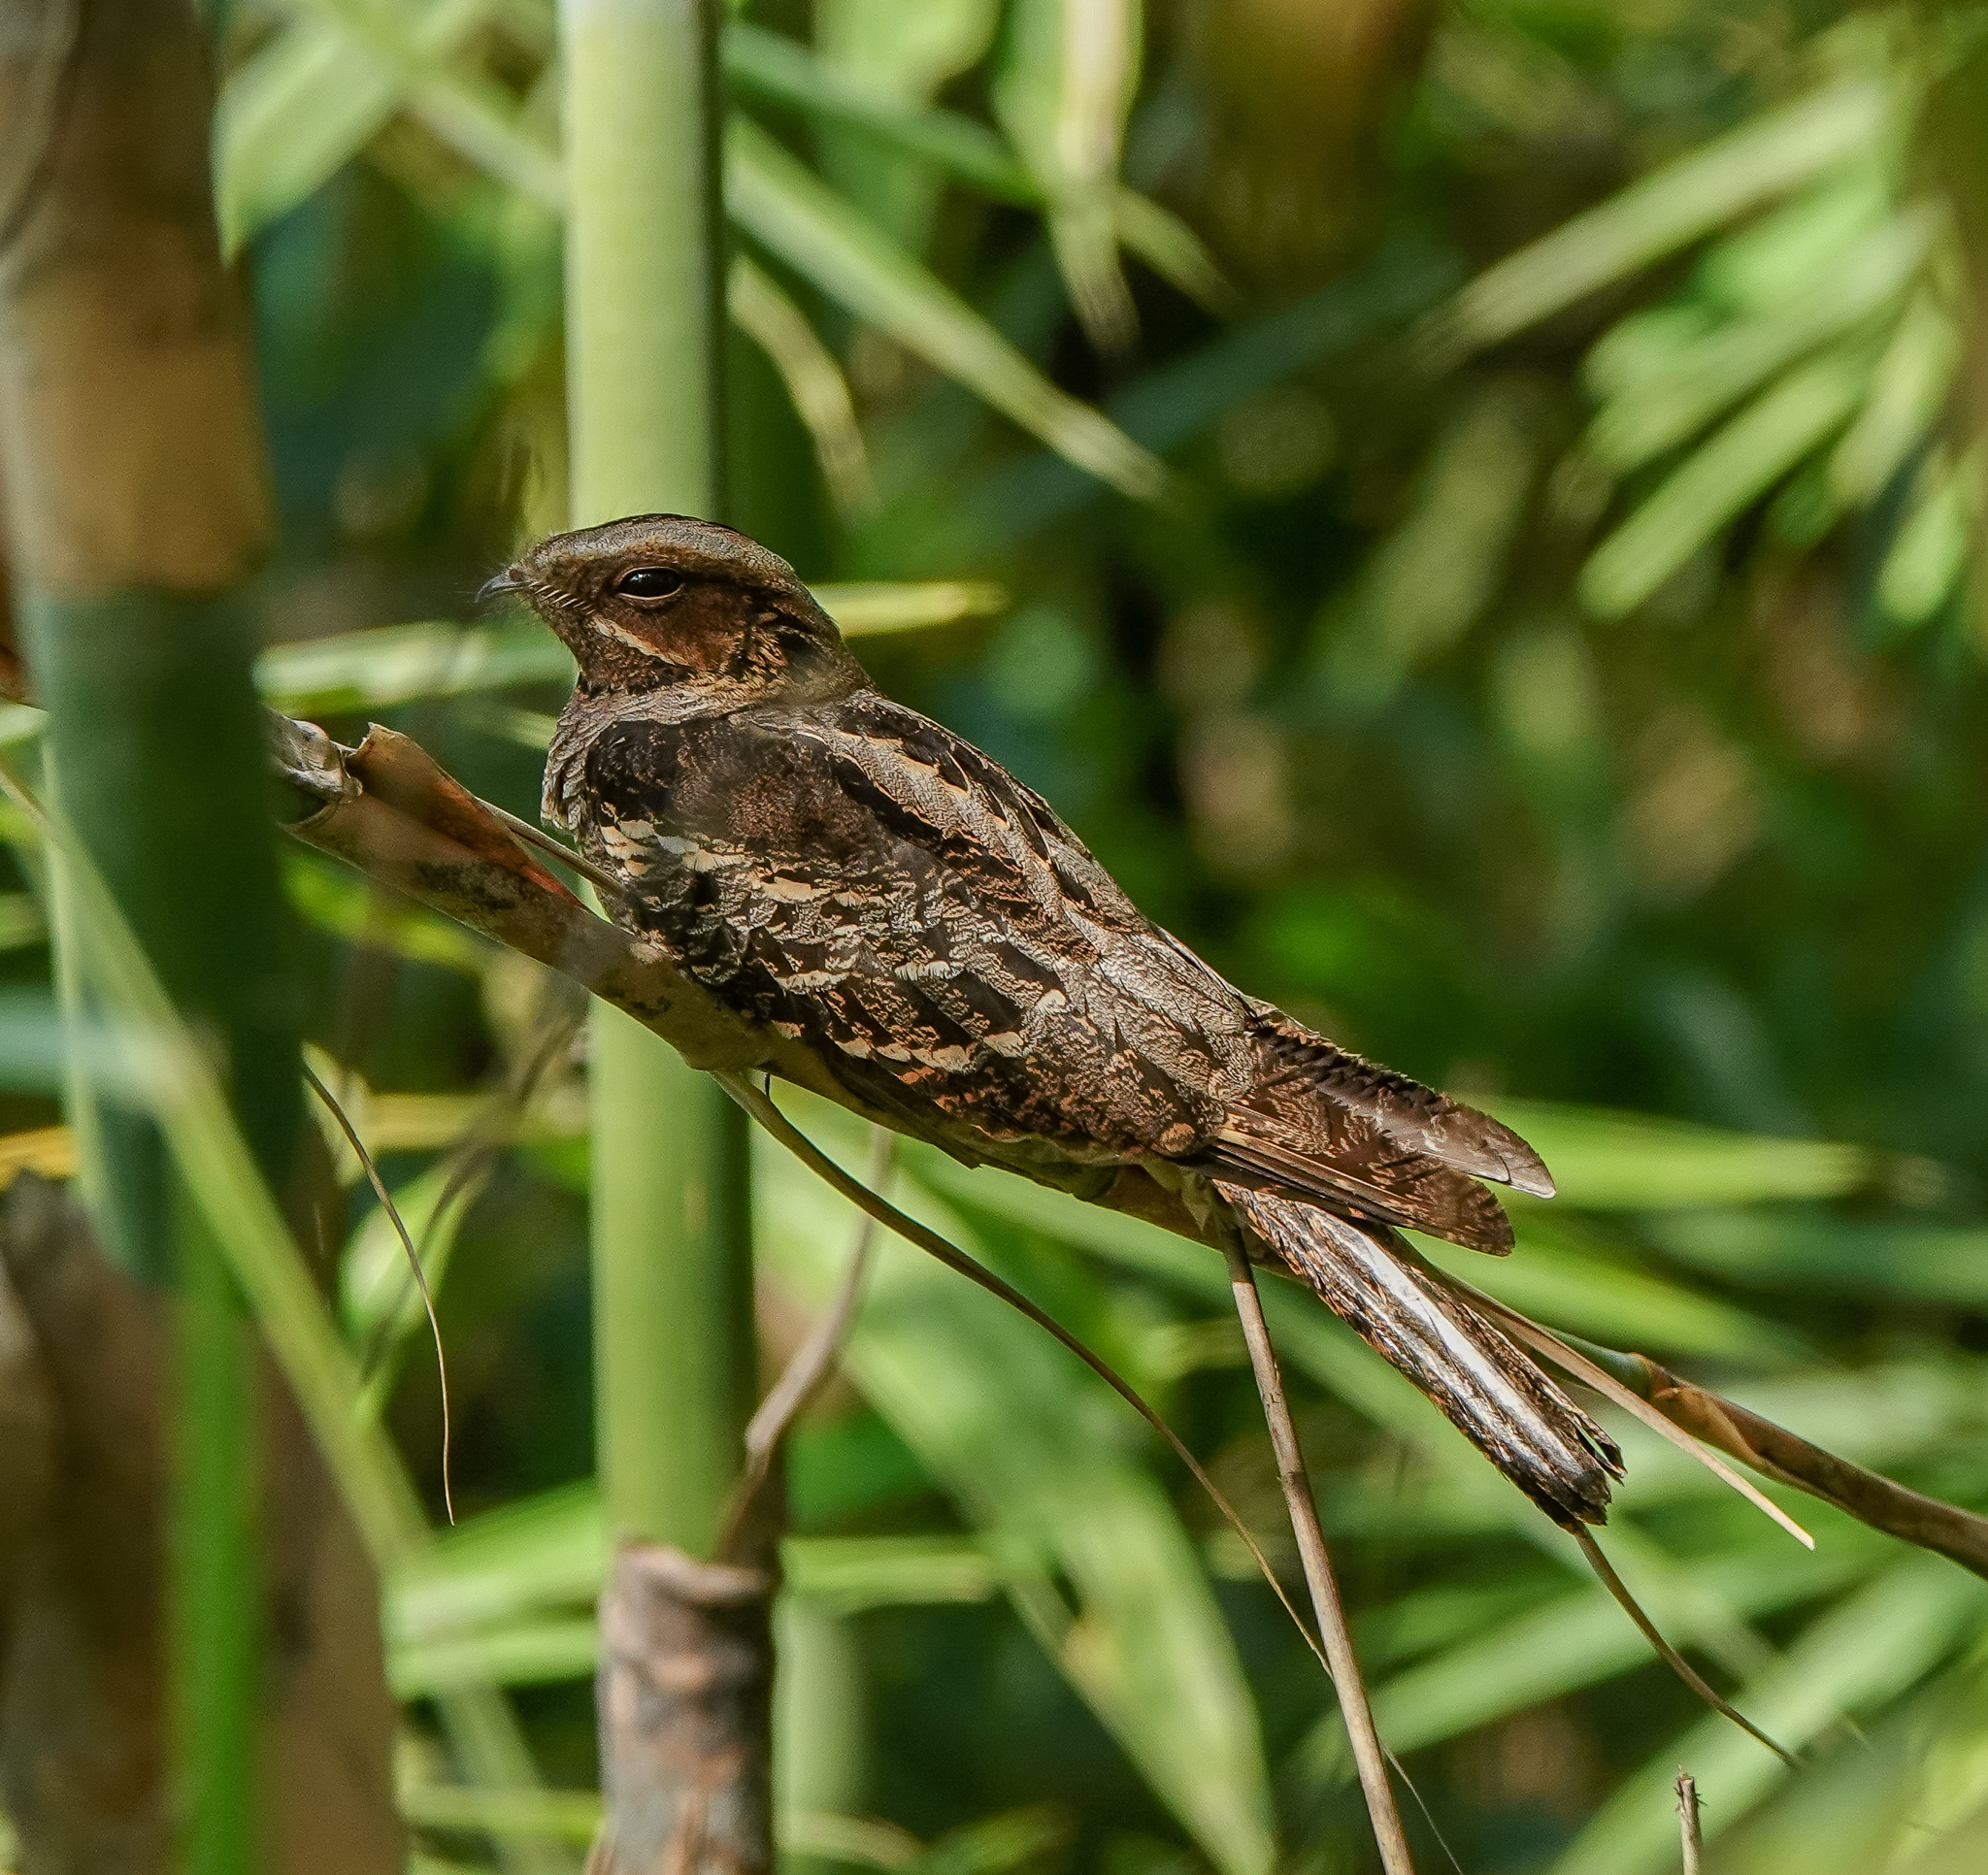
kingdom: Animalia
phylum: Chordata
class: Aves
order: Caprimulgiformes
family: Caprimulgidae
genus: Caprimulgus
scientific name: Caprimulgus macrurus
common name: Large-tailed nightjar
